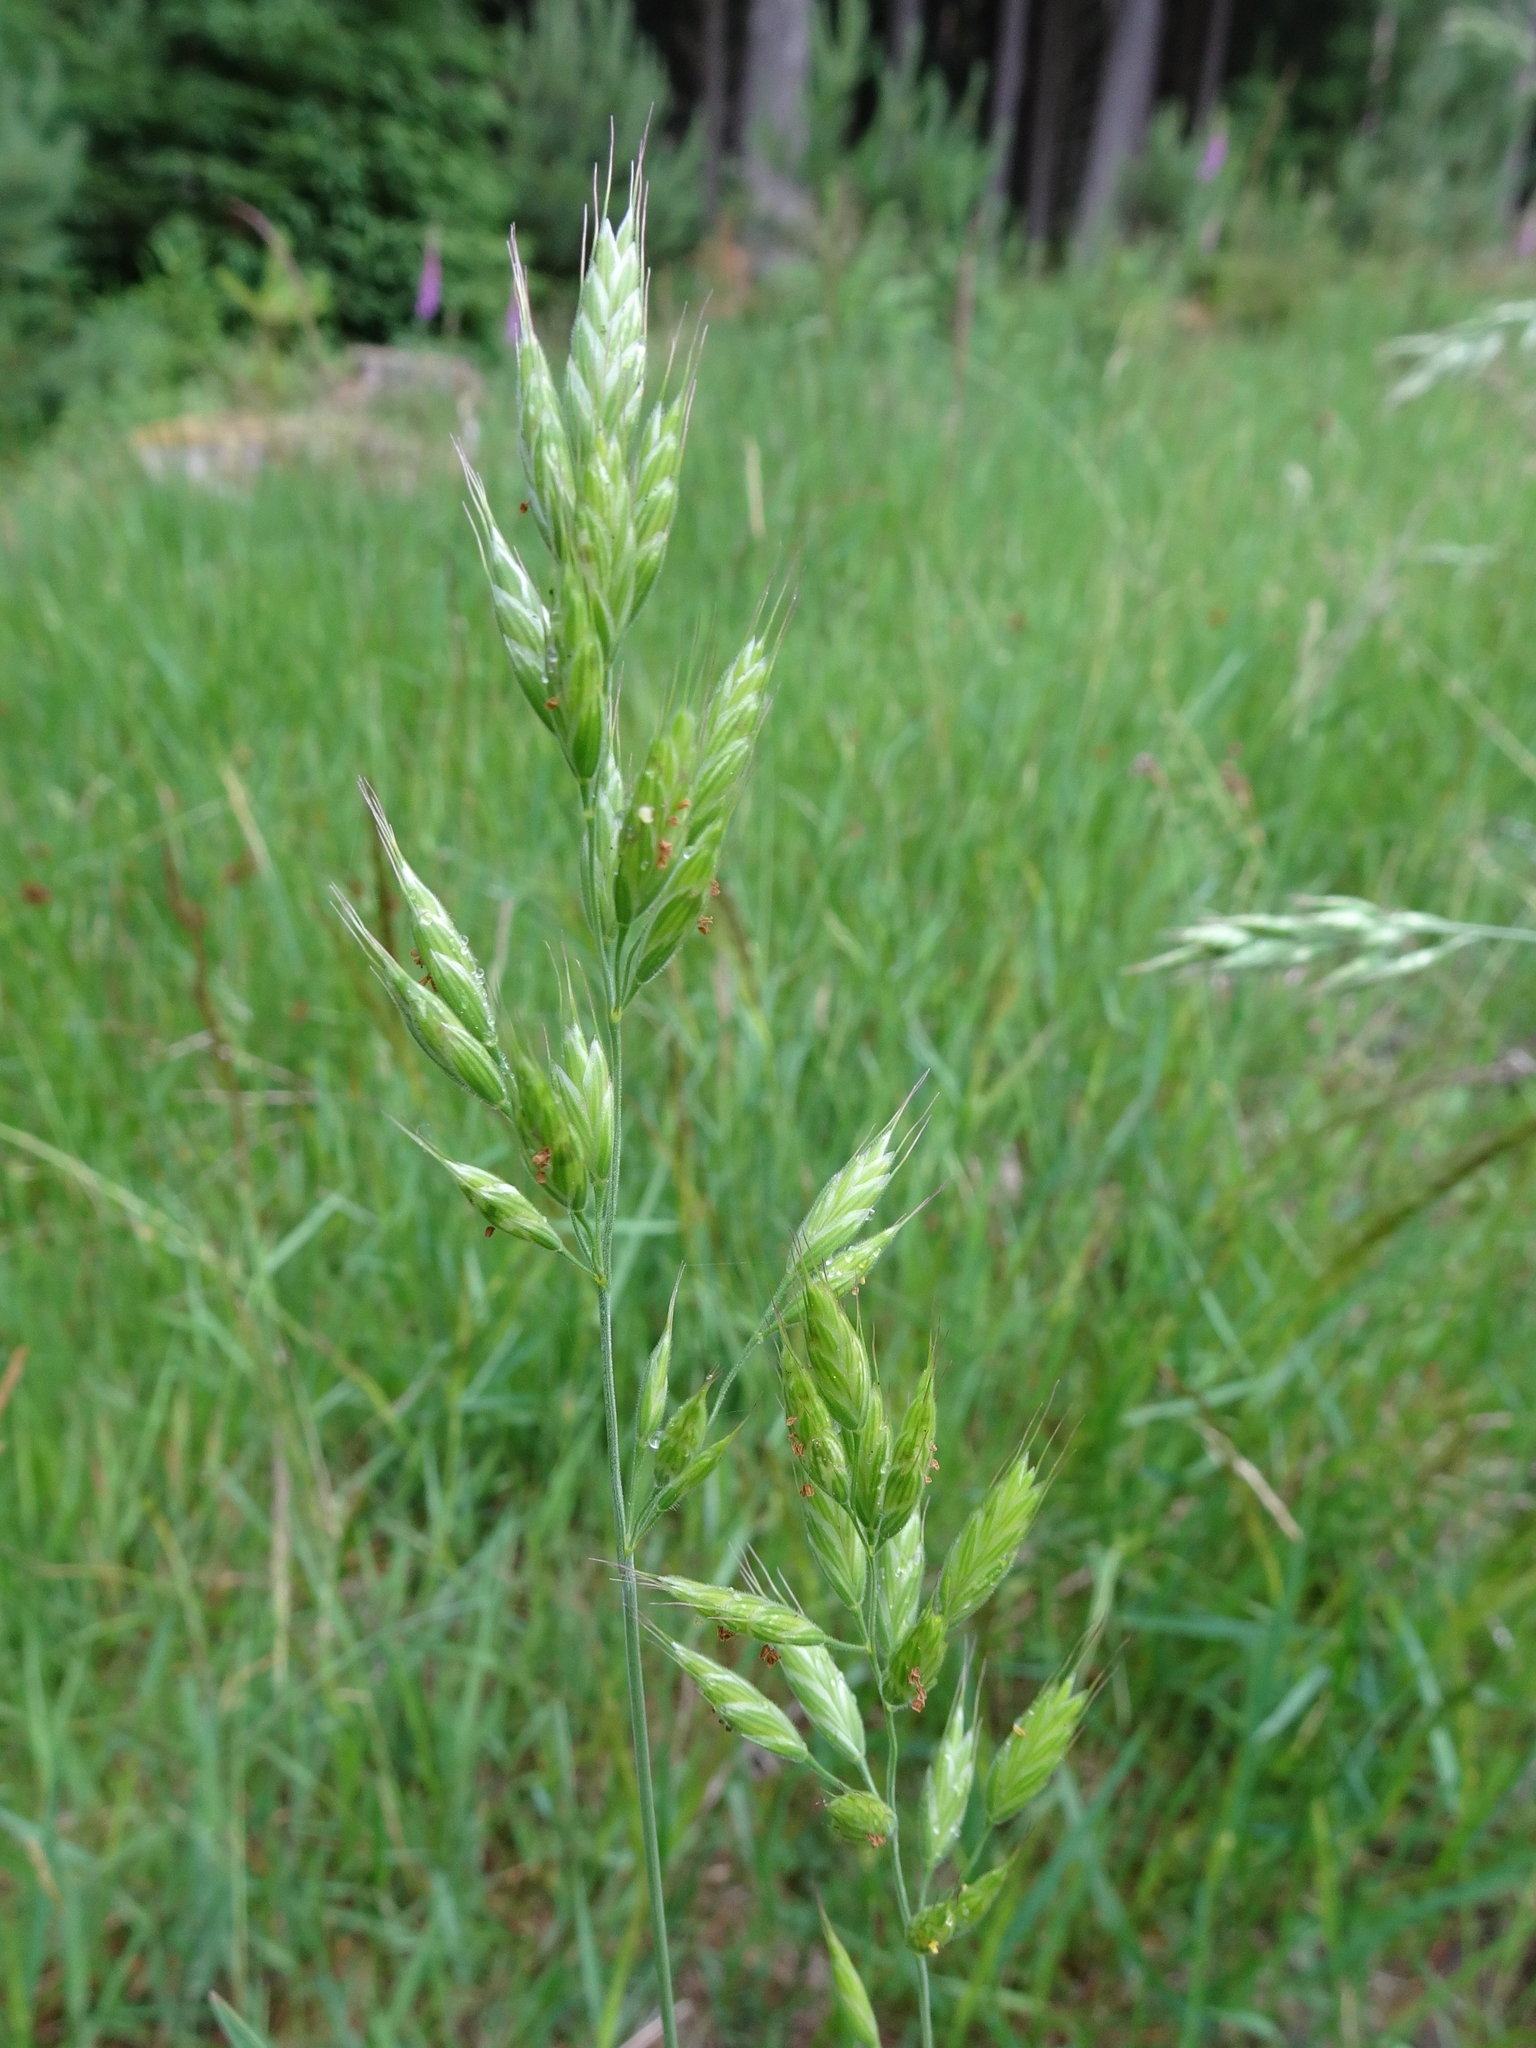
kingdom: Plantae
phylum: Tracheophyta
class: Liliopsida
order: Poales
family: Poaceae
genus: Bromus
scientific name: Bromus hordeaceus
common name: Soft brome
